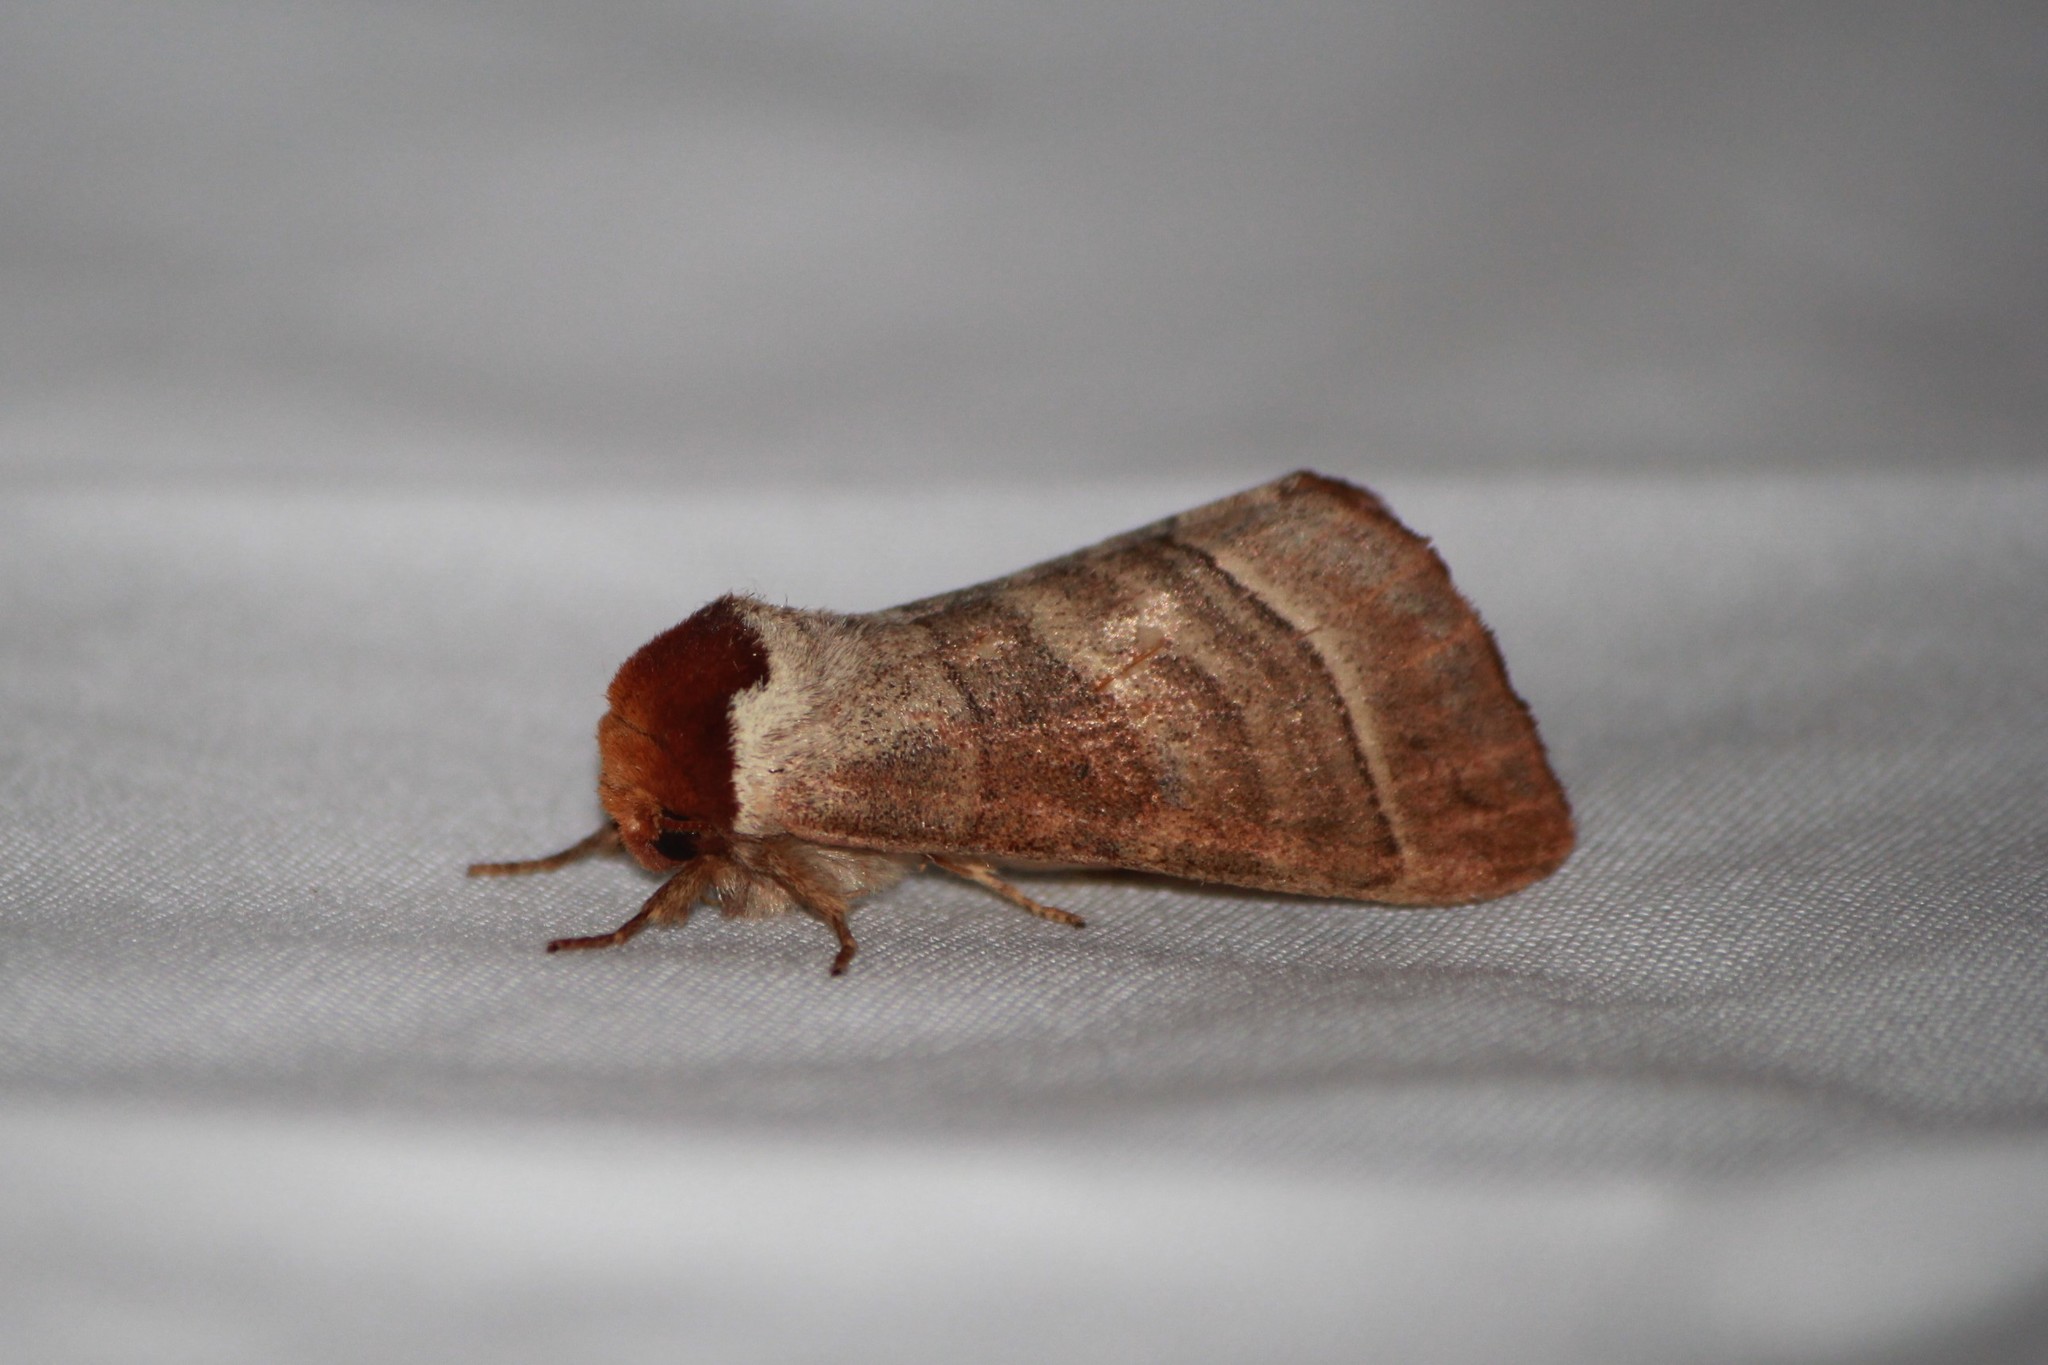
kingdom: Animalia
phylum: Arthropoda
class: Insecta
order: Lepidoptera
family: Notodontidae
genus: Datana
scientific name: Datana integerrima
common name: Walnut caterpillar
